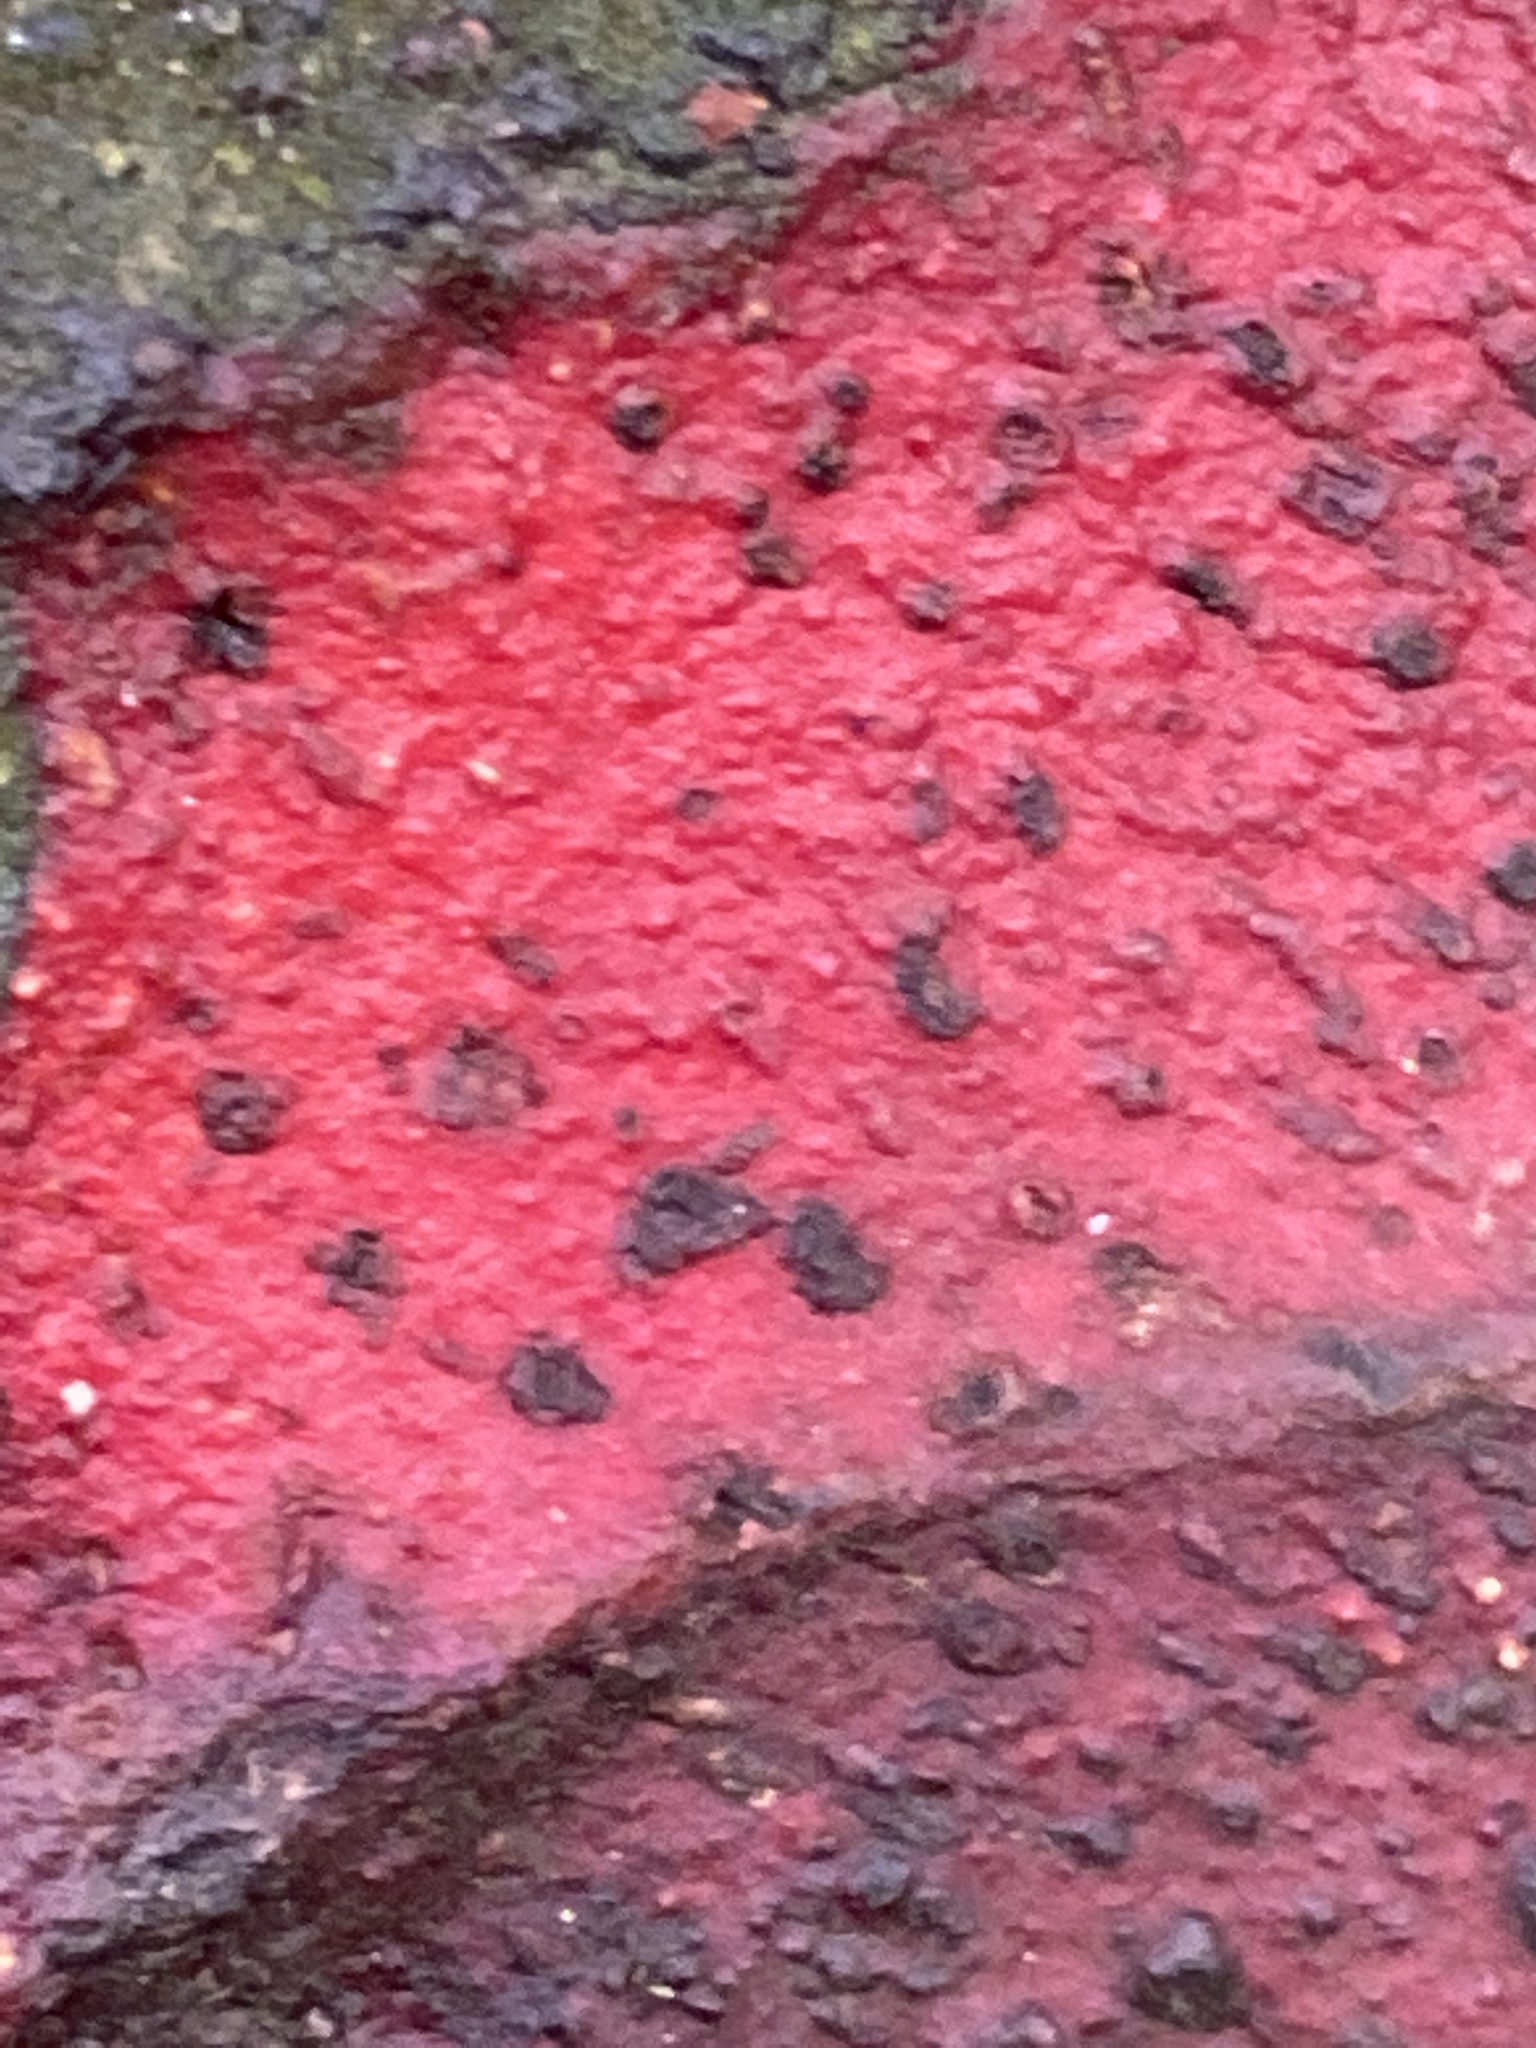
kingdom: Plantae
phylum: Tracheophyta
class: Pinopsida
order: Pinales
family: Podocarpaceae
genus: Prumnopitys
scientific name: Prumnopitys taxifolia
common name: Matai
